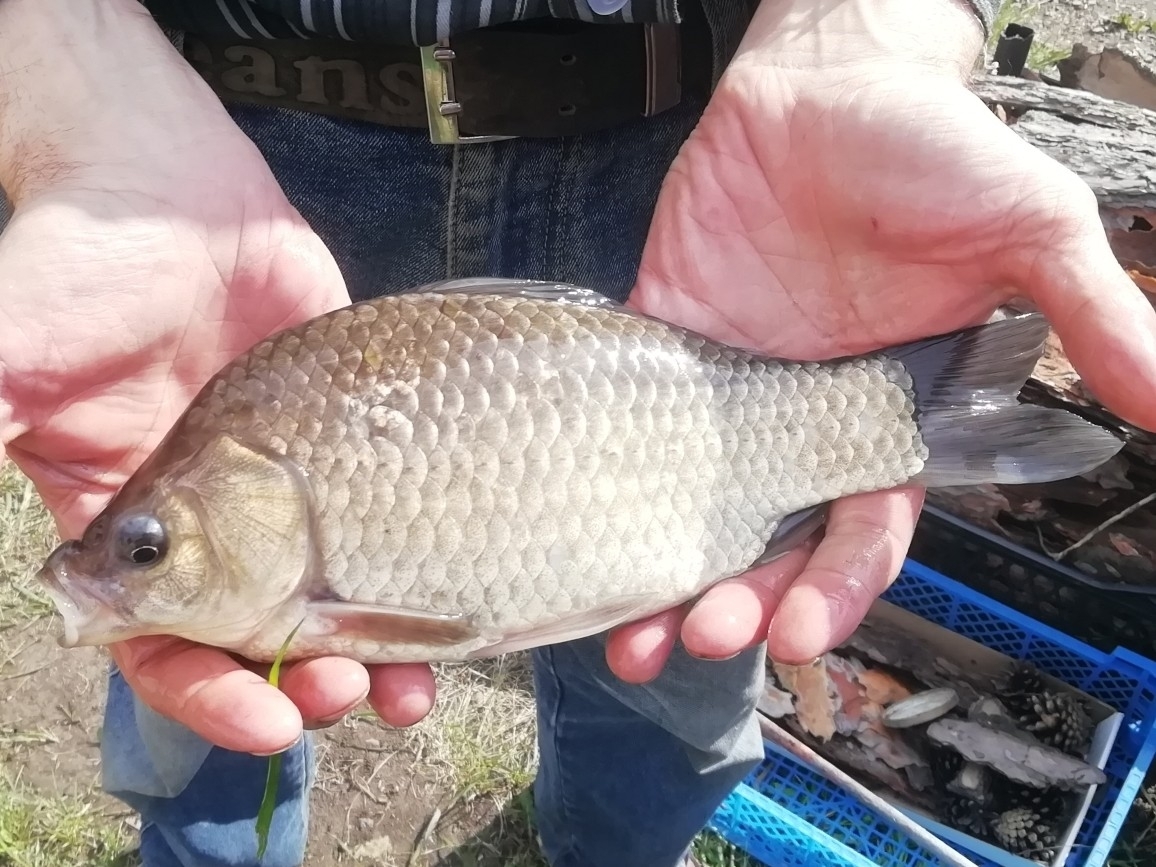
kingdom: Animalia
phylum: Chordata
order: Cypriniformes
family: Cyprinidae
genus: Carassius
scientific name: Carassius gibelio
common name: Prussian carp
